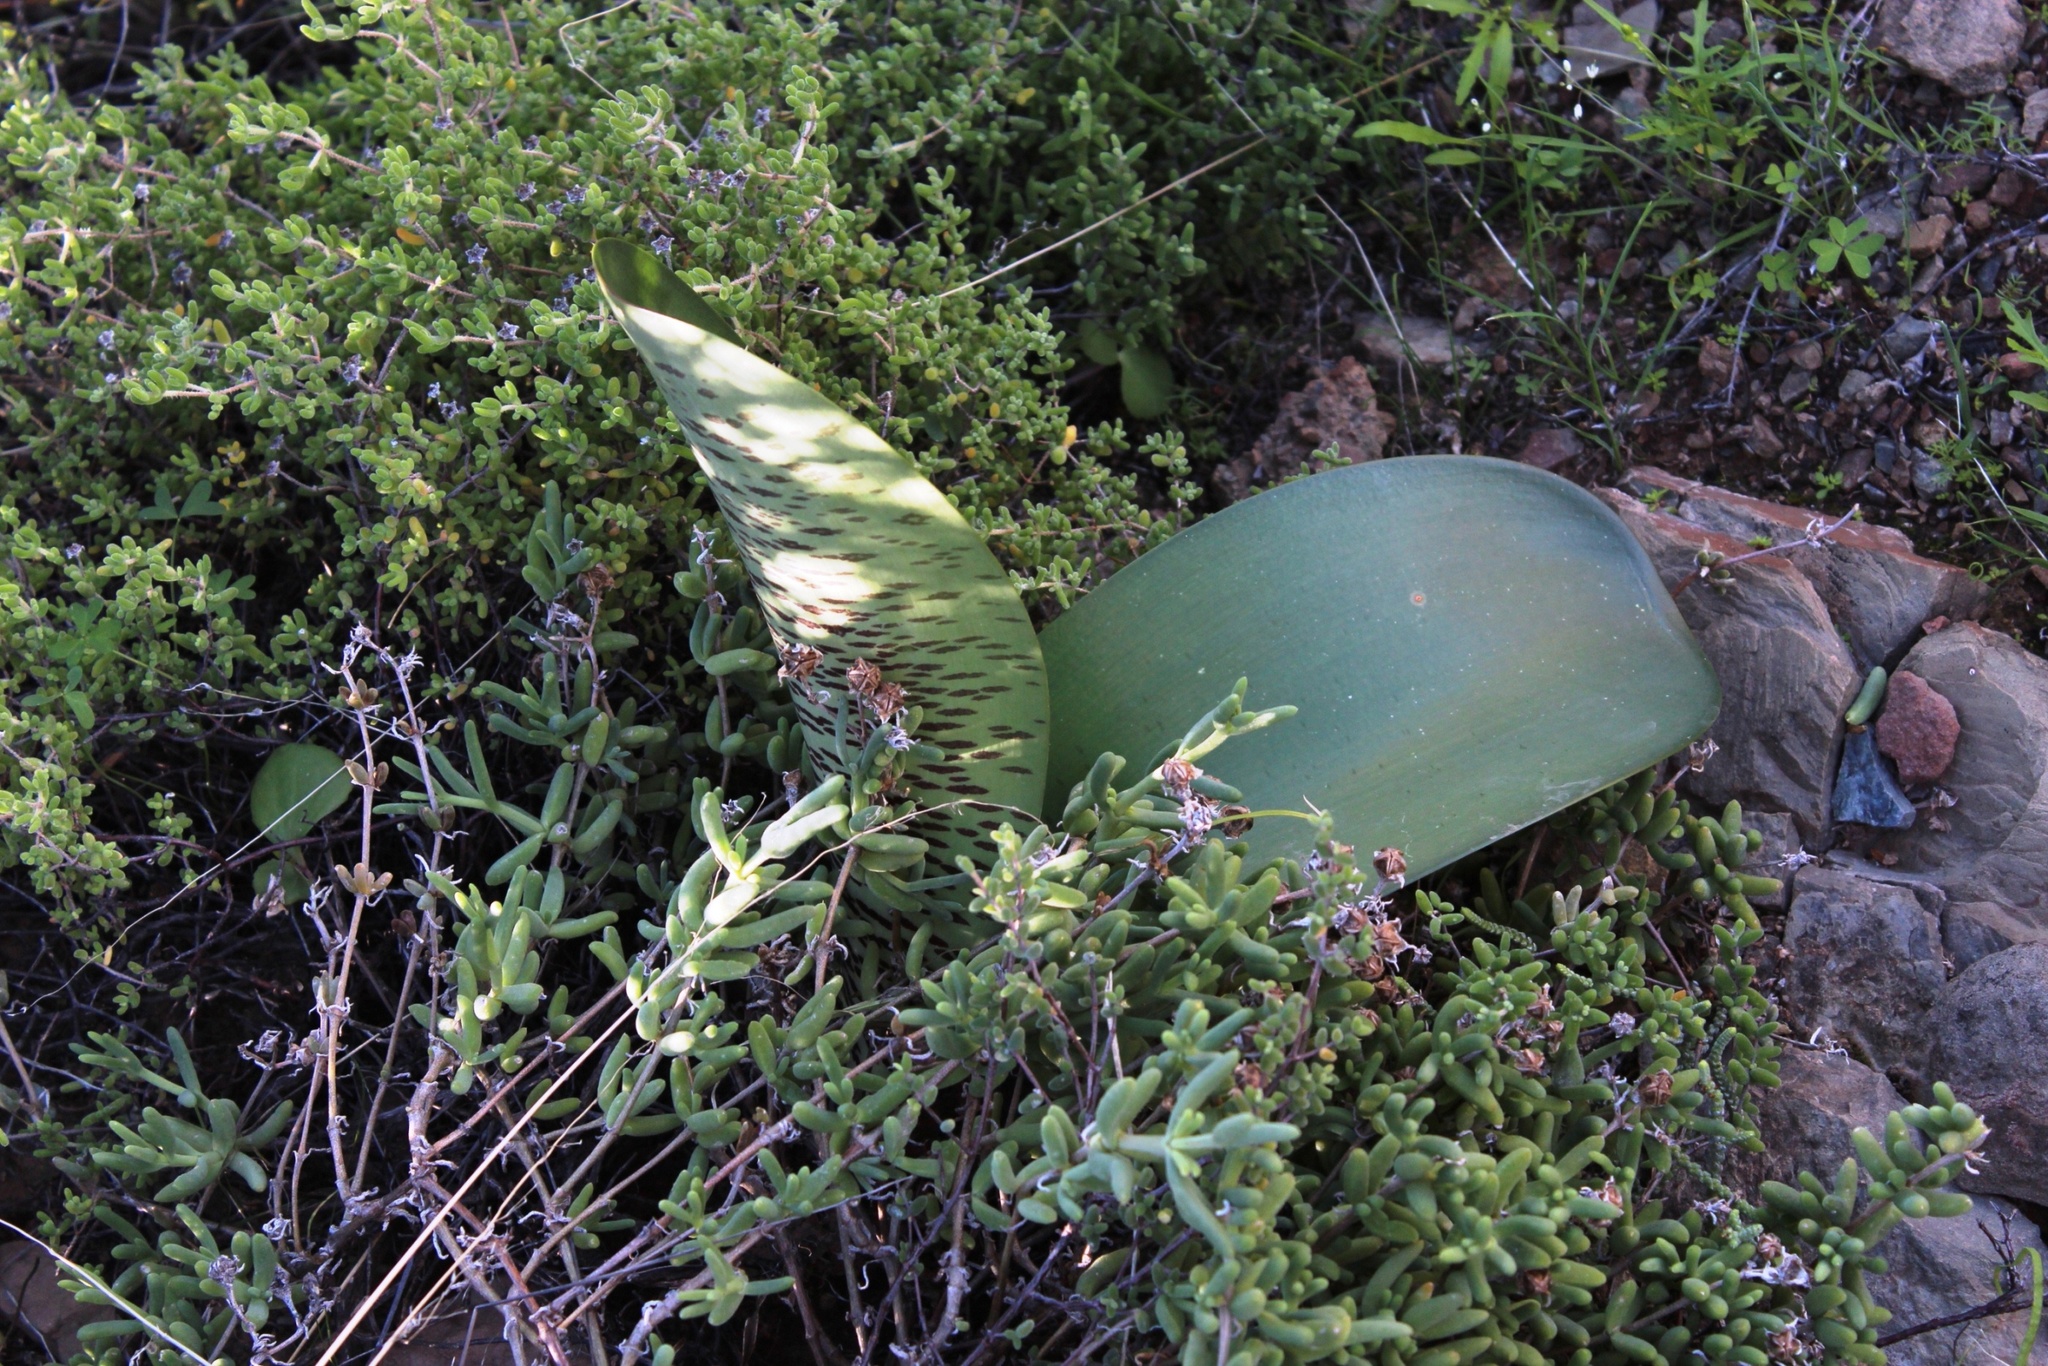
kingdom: Plantae
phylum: Tracheophyta
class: Liliopsida
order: Asparagales
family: Amaryllidaceae
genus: Haemanthus
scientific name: Haemanthus coccineus
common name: Cape-tulip
